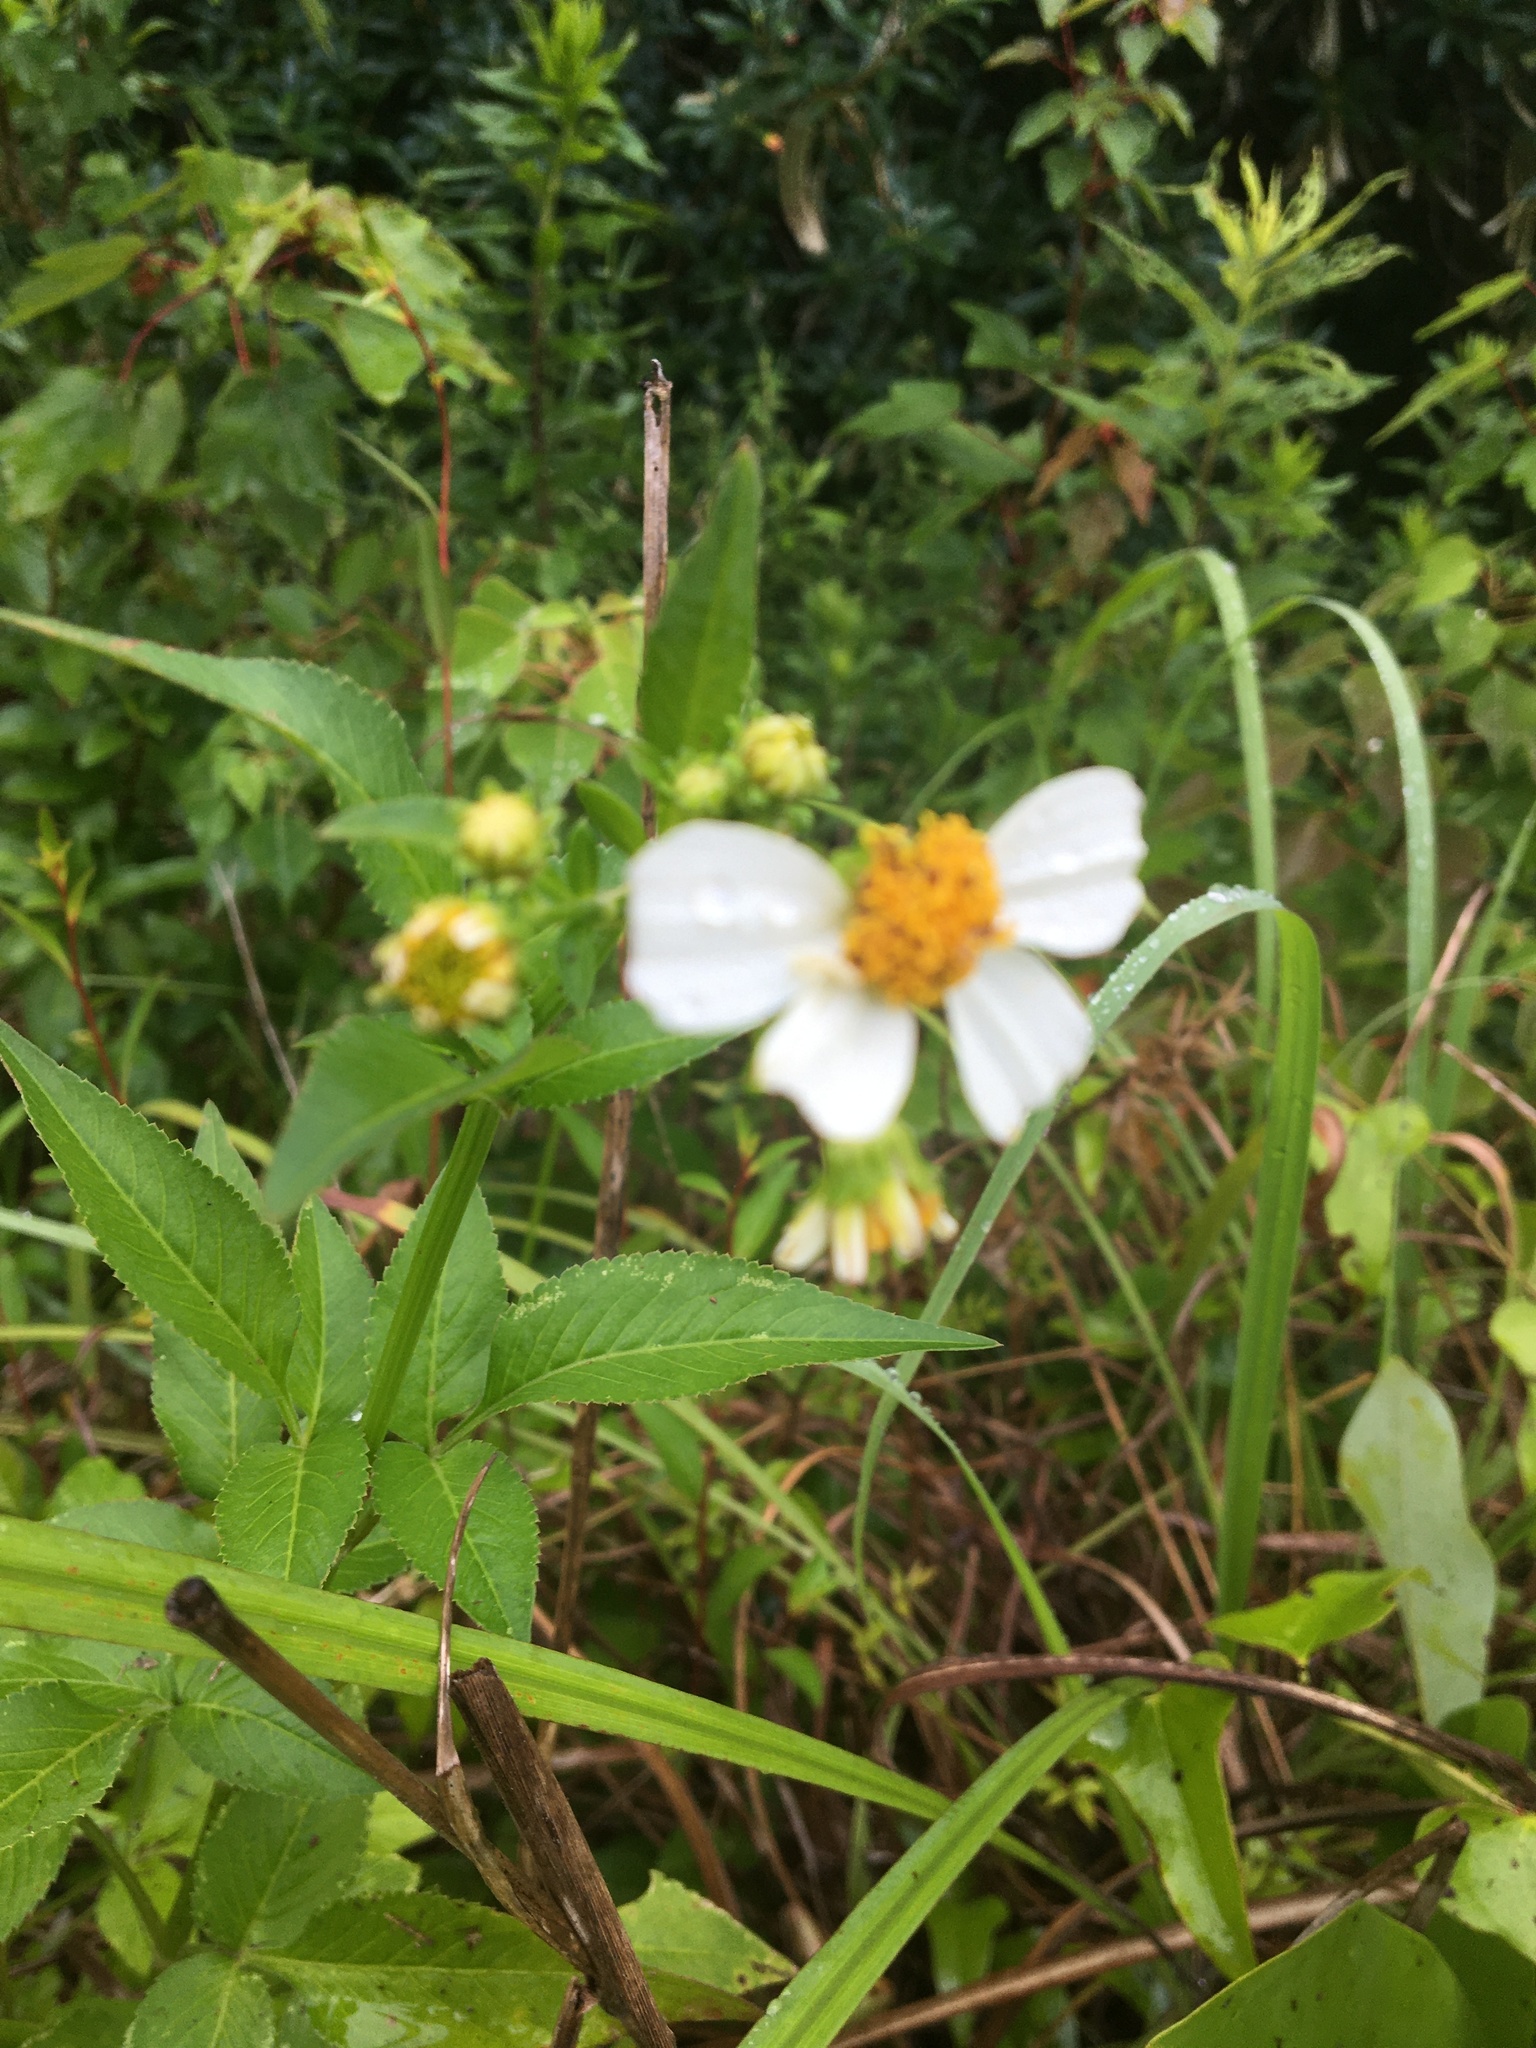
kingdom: Plantae
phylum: Tracheophyta
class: Magnoliopsida
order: Asterales
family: Asteraceae
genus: Bidens
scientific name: Bidens alba
